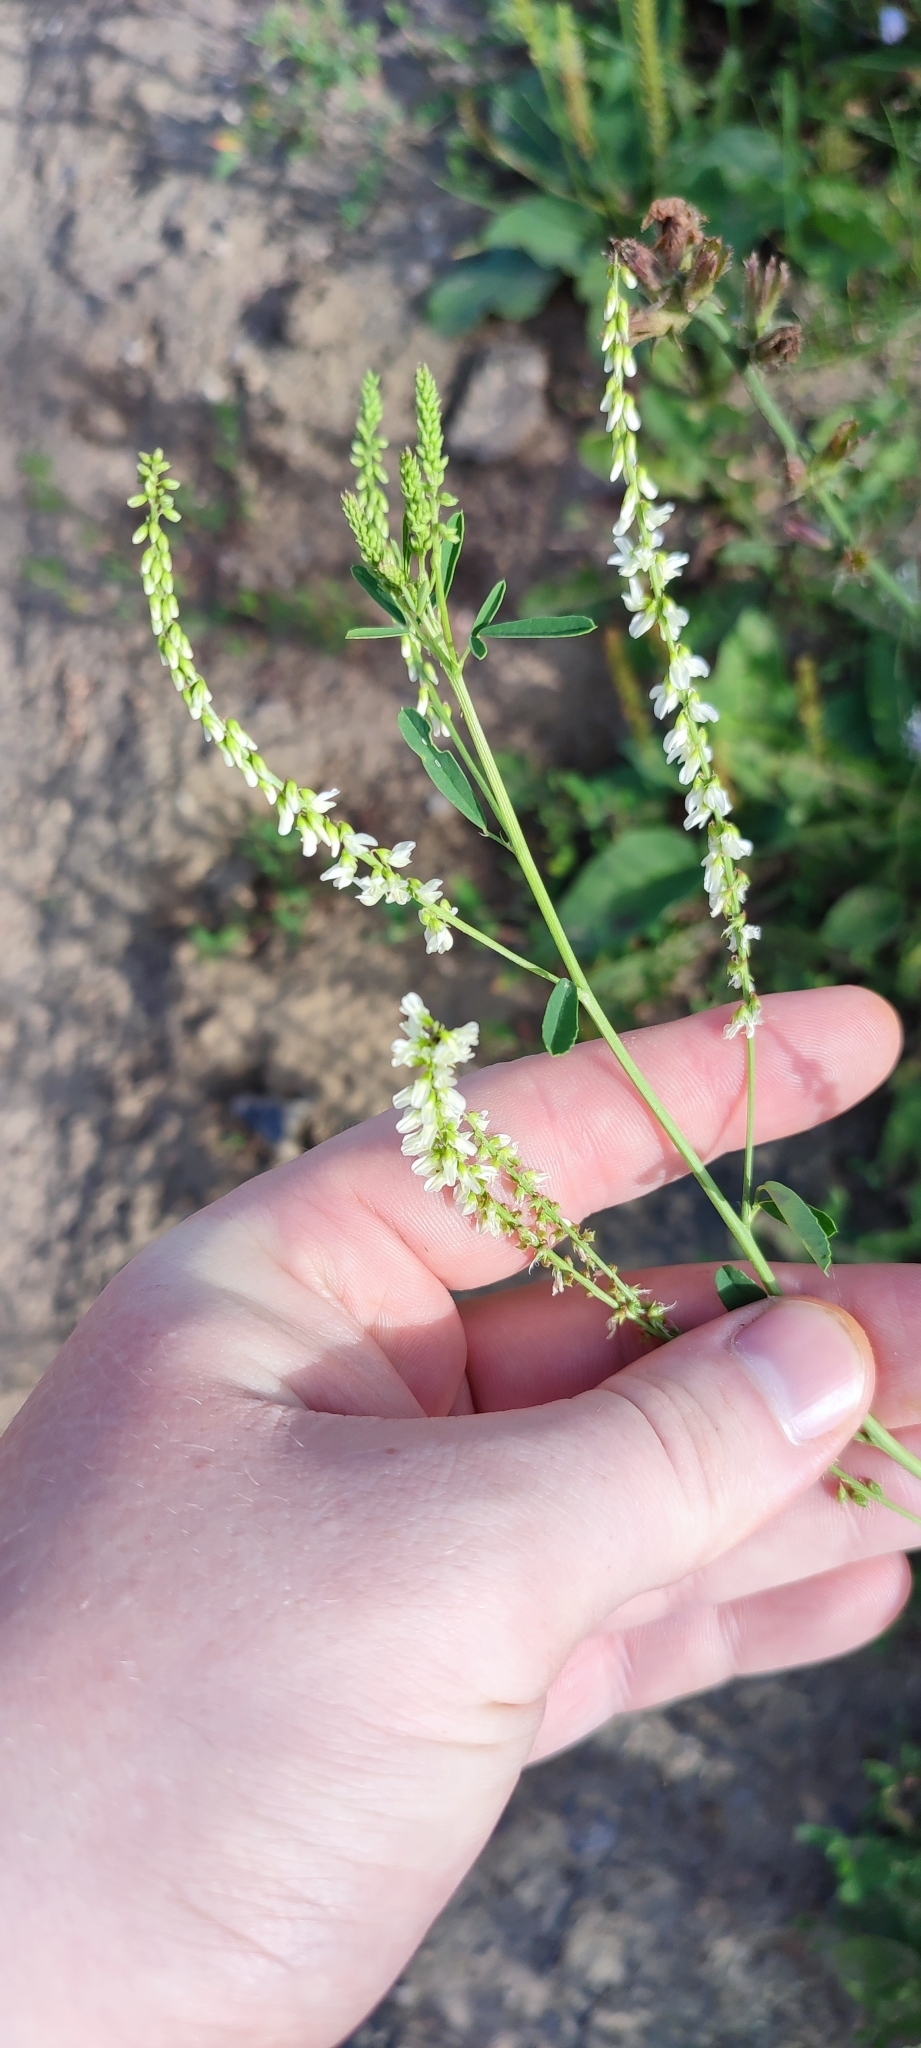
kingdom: Plantae
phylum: Tracheophyta
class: Magnoliopsida
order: Fabales
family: Fabaceae
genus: Melilotus
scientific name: Melilotus albus
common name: White melilot
